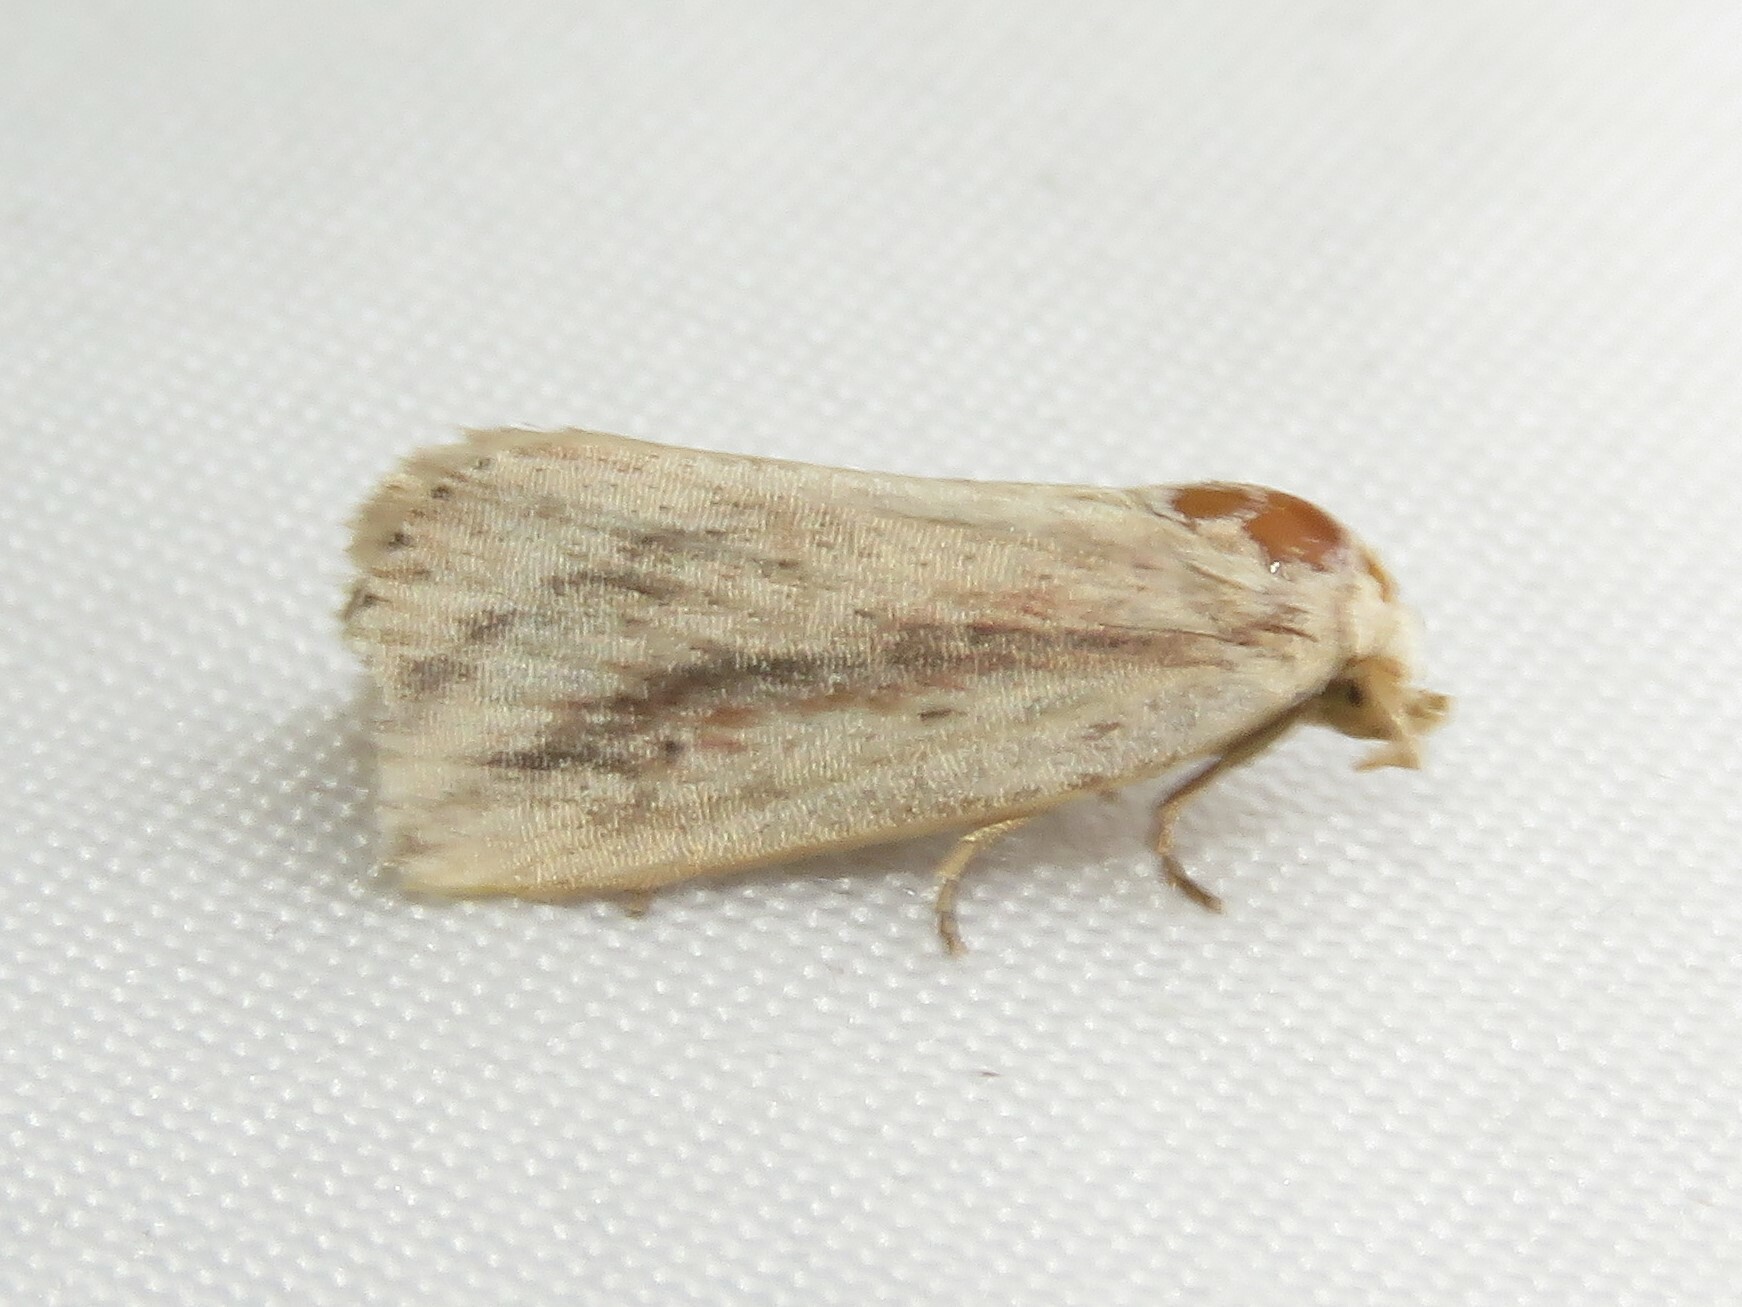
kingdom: Animalia
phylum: Arthropoda
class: Insecta
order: Lepidoptera
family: Noctuidae
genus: Amolita
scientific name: Amolita fessa
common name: Feeble grass moth
